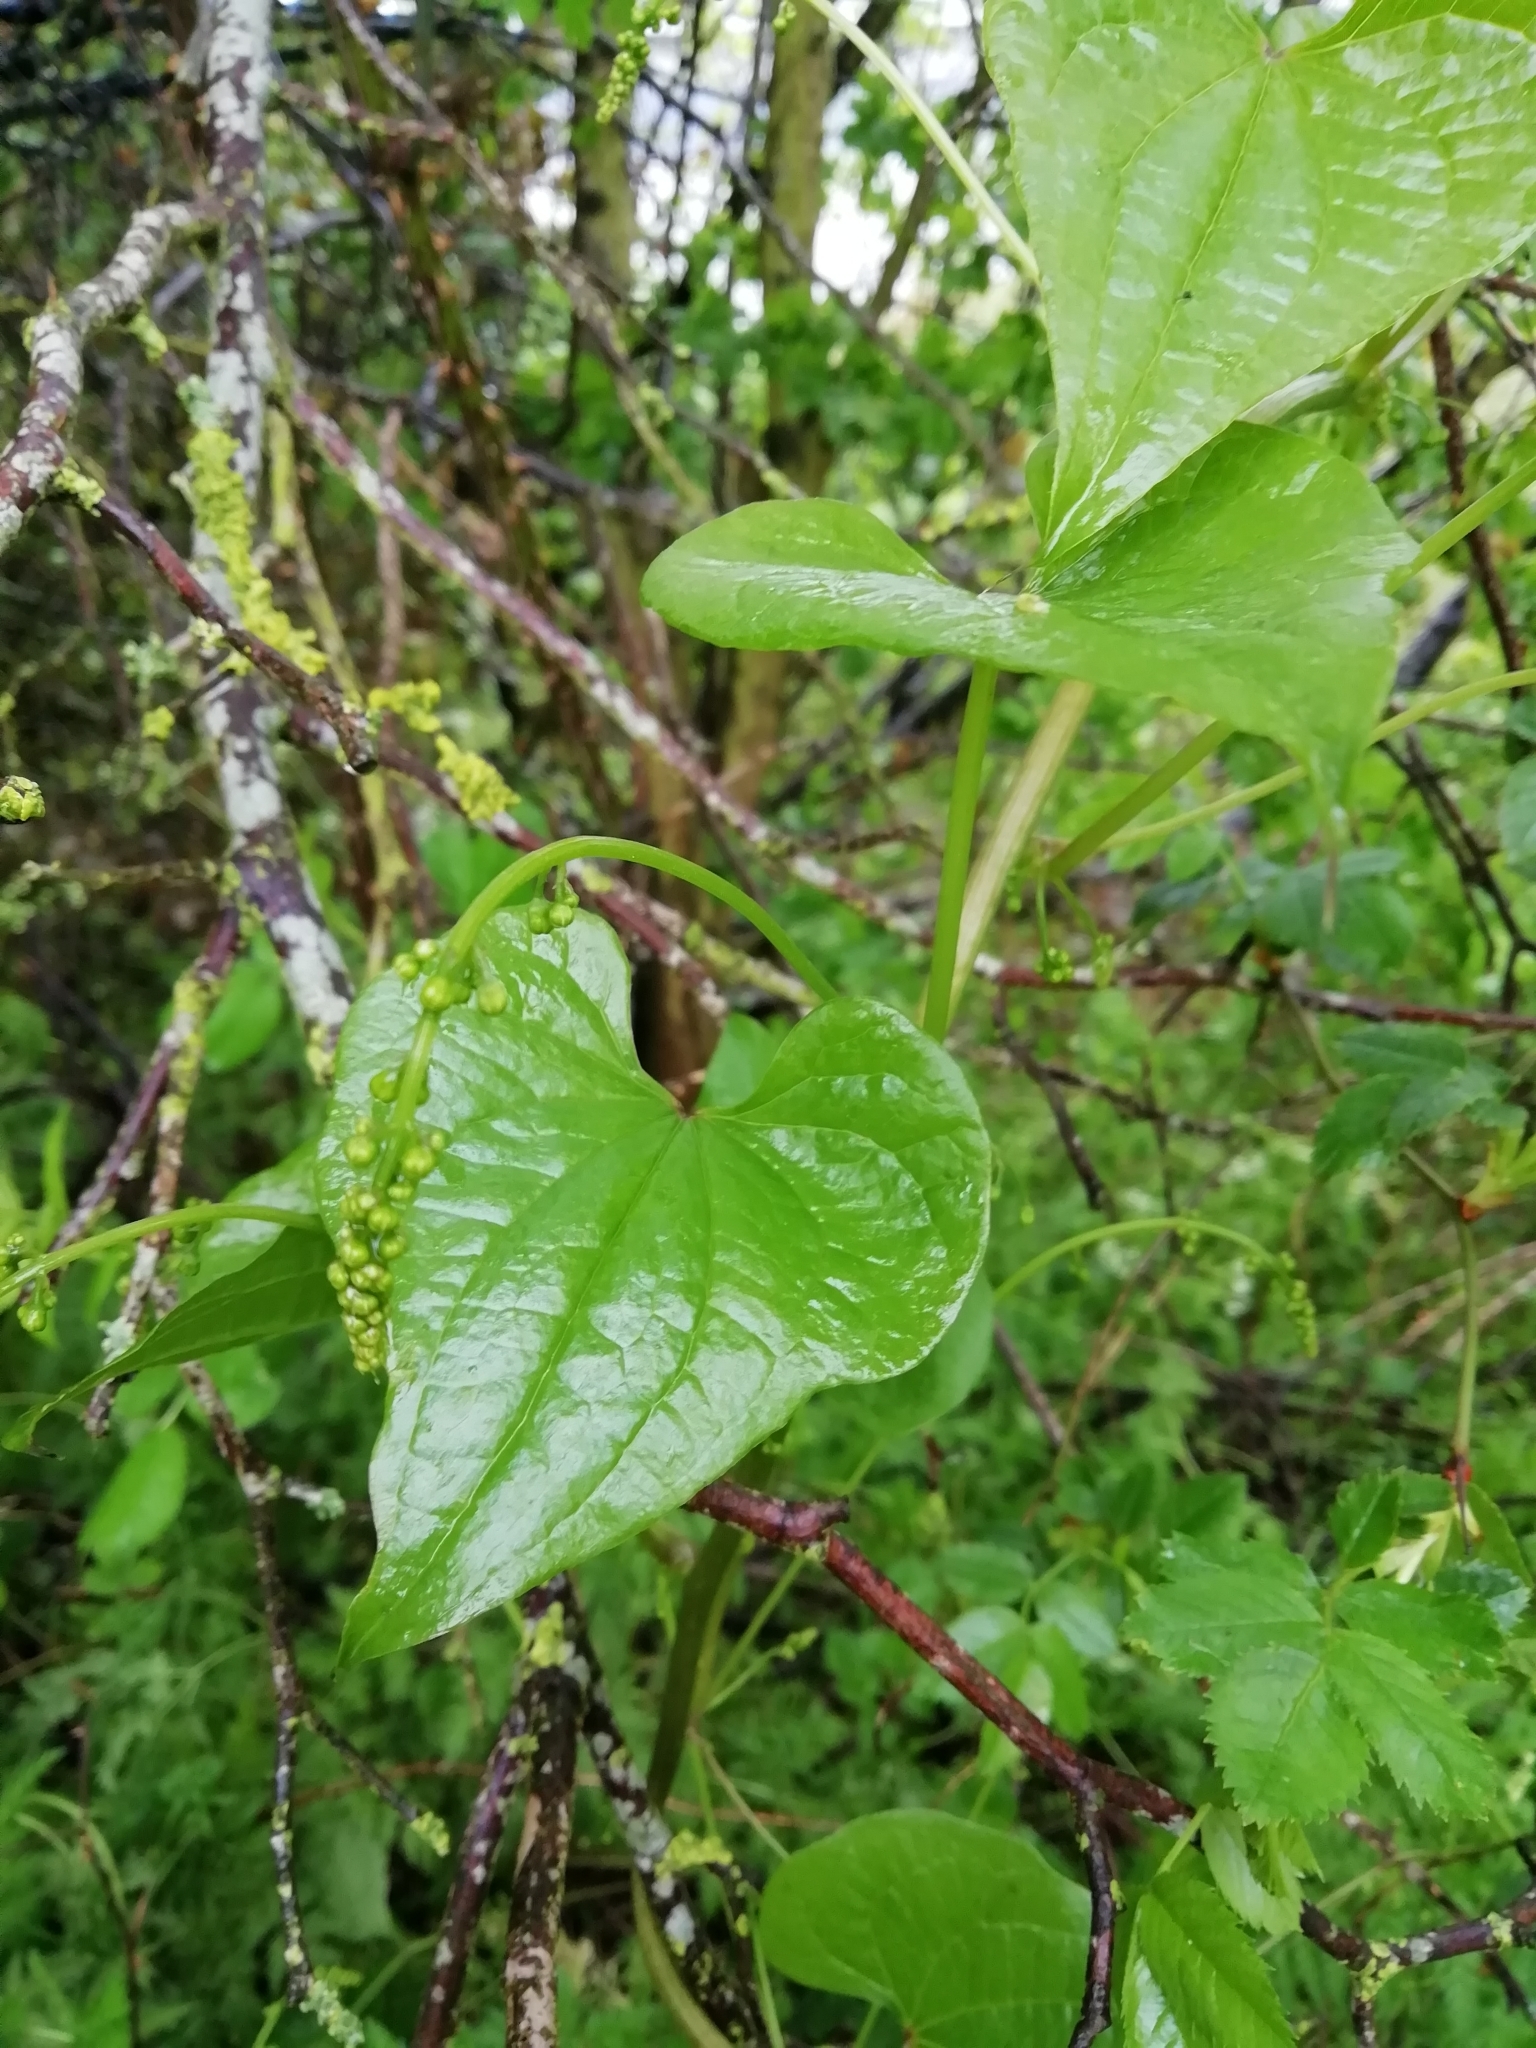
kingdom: Plantae
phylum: Tracheophyta
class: Liliopsida
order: Dioscoreales
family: Dioscoreaceae
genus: Dioscorea
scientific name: Dioscorea communis
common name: Black-bindweed
